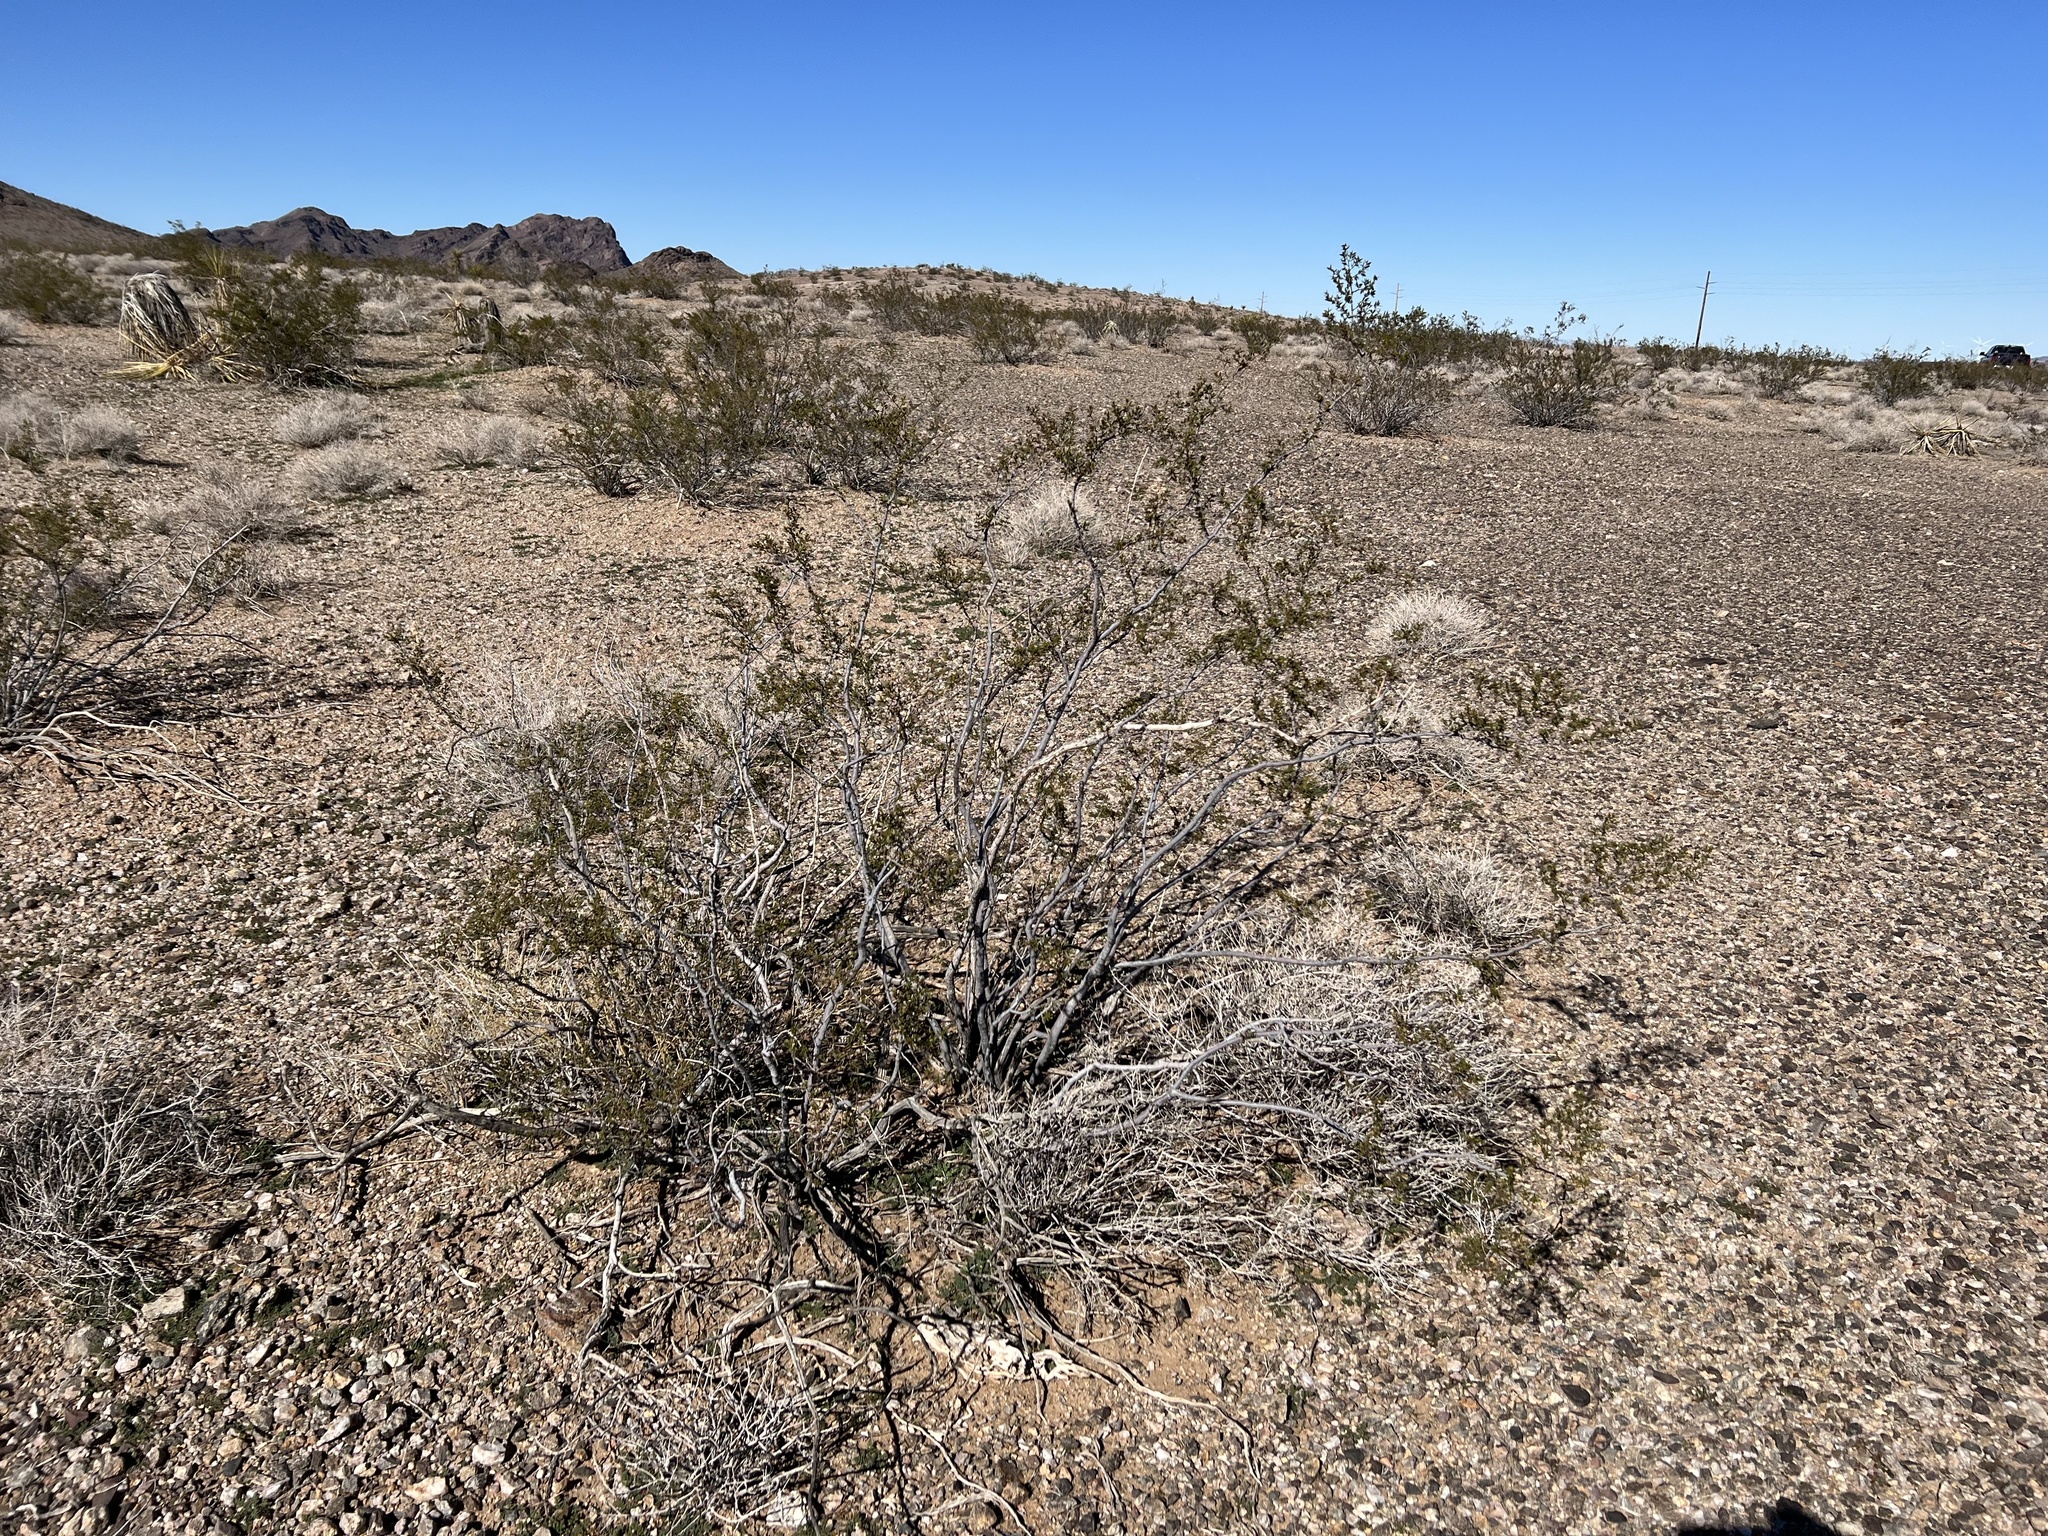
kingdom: Plantae
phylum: Tracheophyta
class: Magnoliopsida
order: Zygophyllales
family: Zygophyllaceae
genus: Larrea
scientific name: Larrea tridentata
